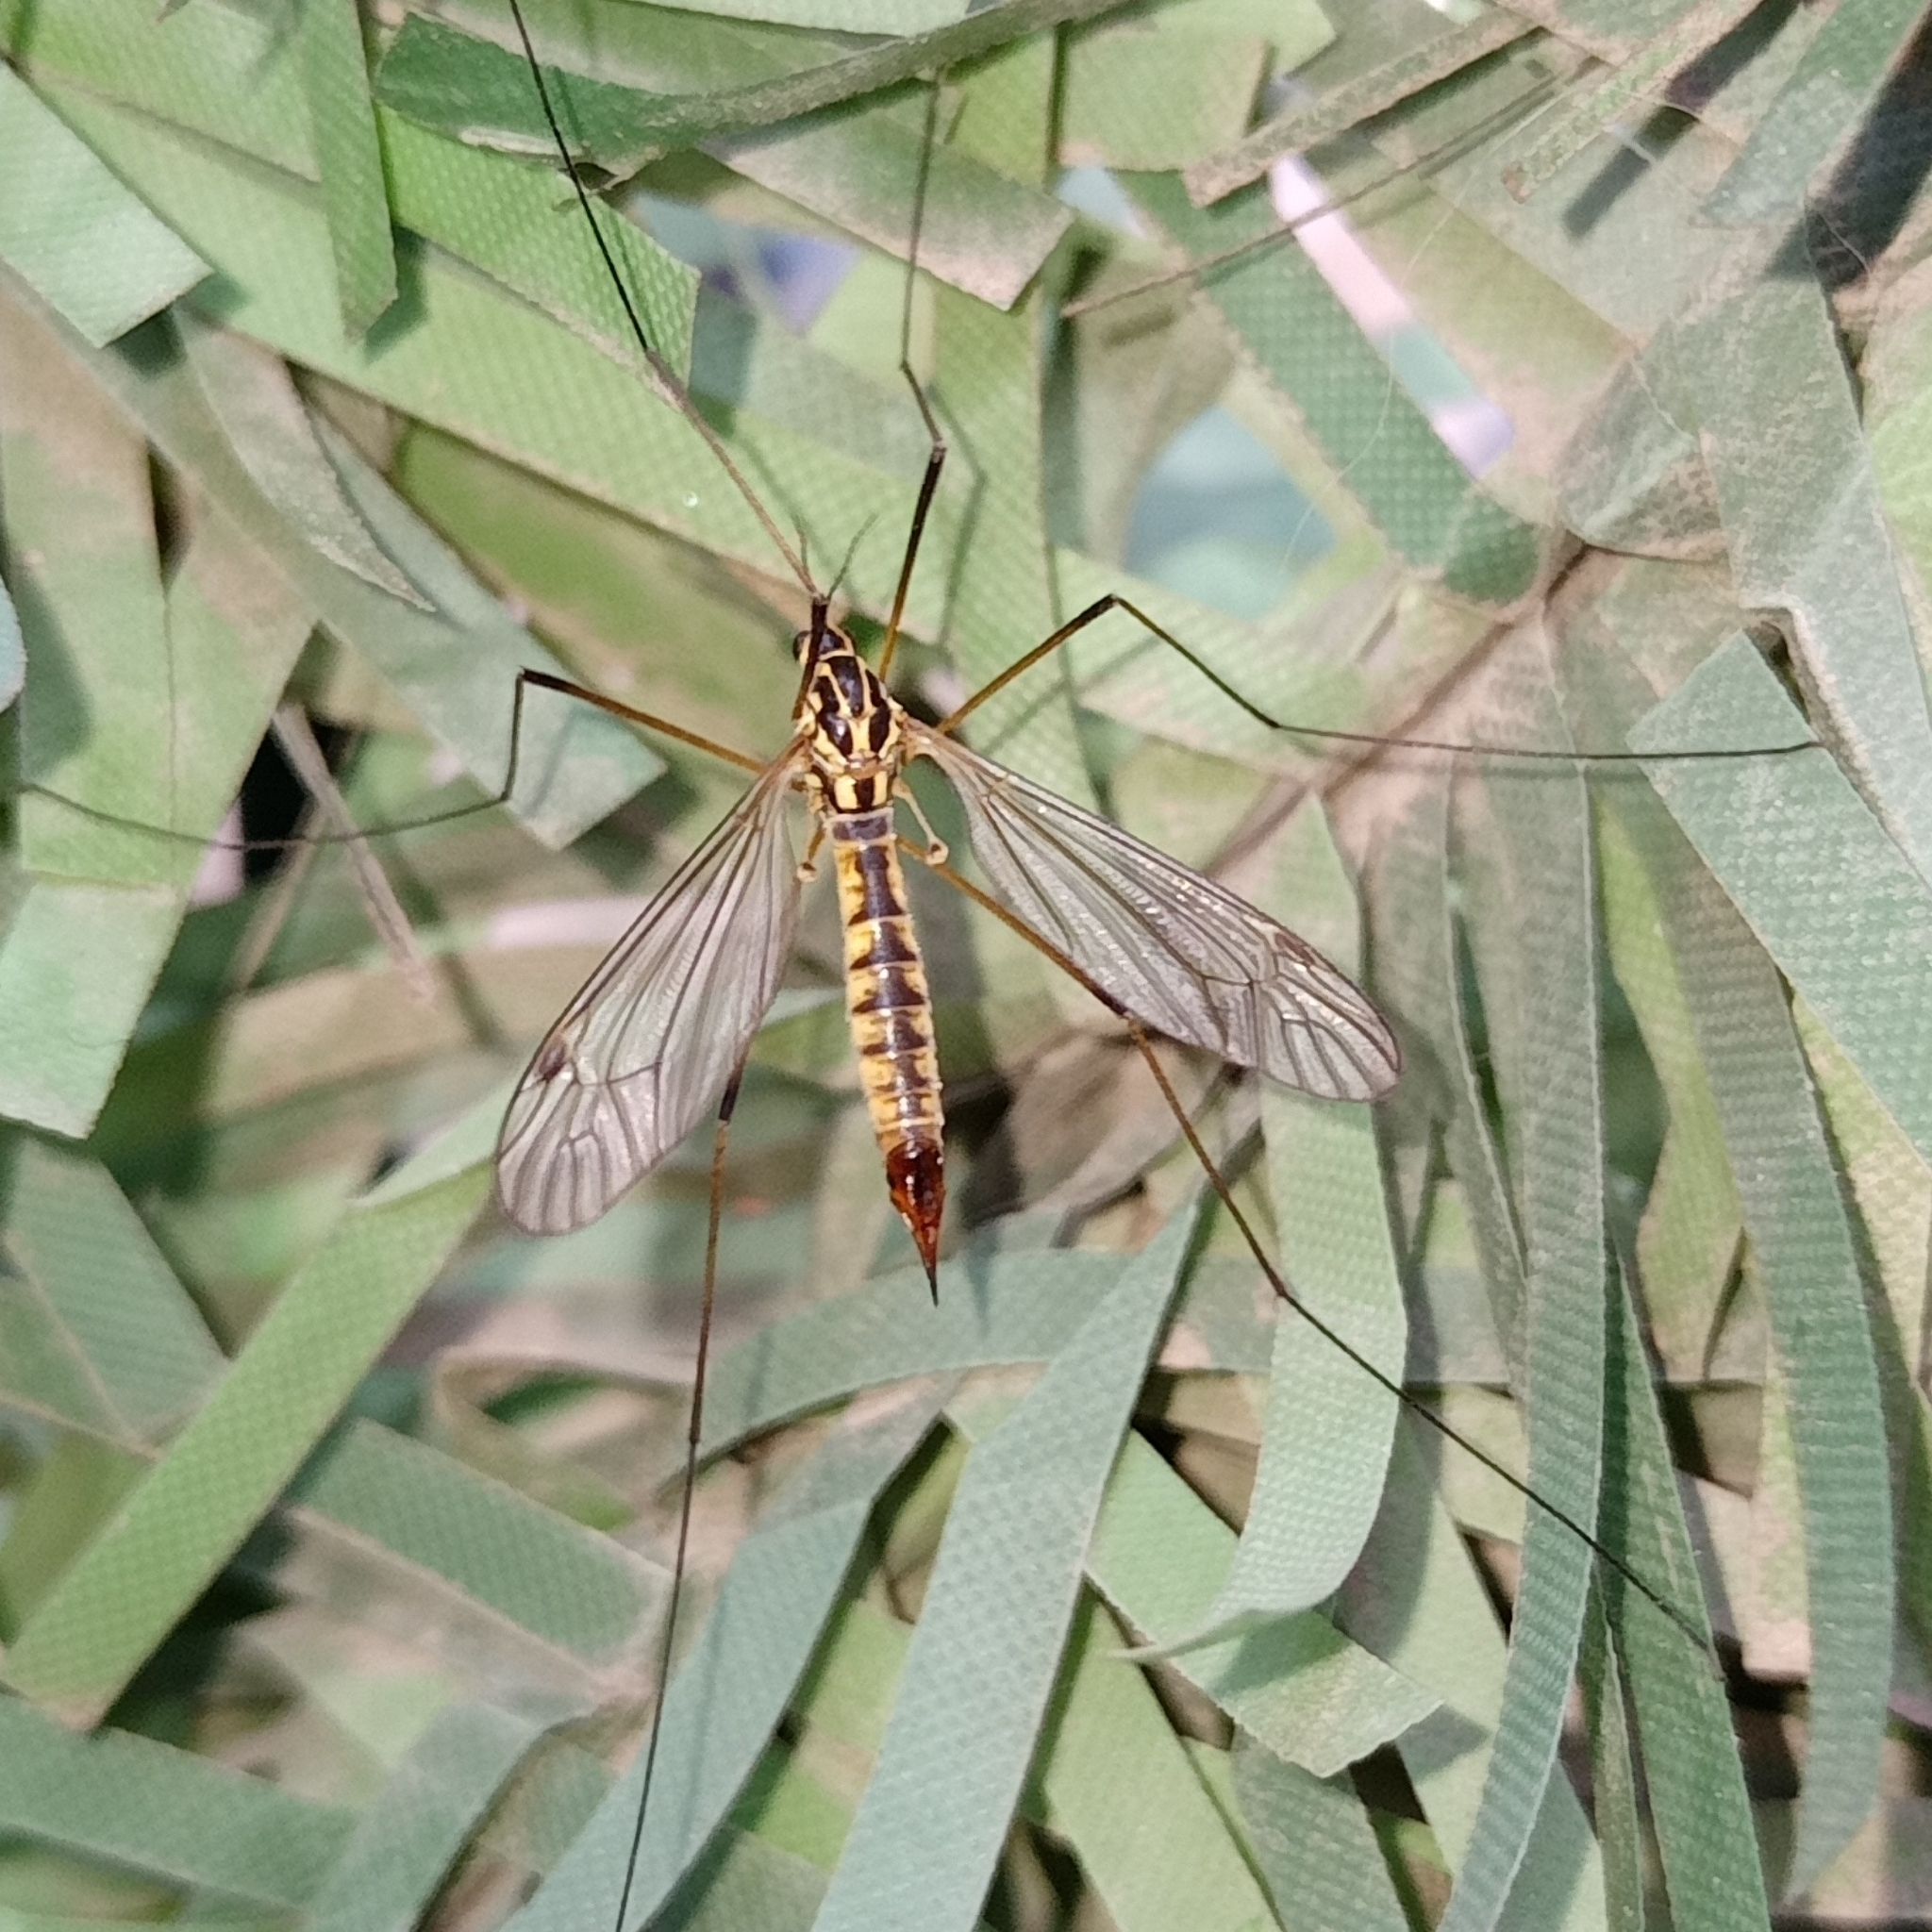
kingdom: Animalia
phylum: Arthropoda
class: Insecta
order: Diptera
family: Tipulidae
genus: Nephrotoma
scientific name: Nephrotoma appendiculata
